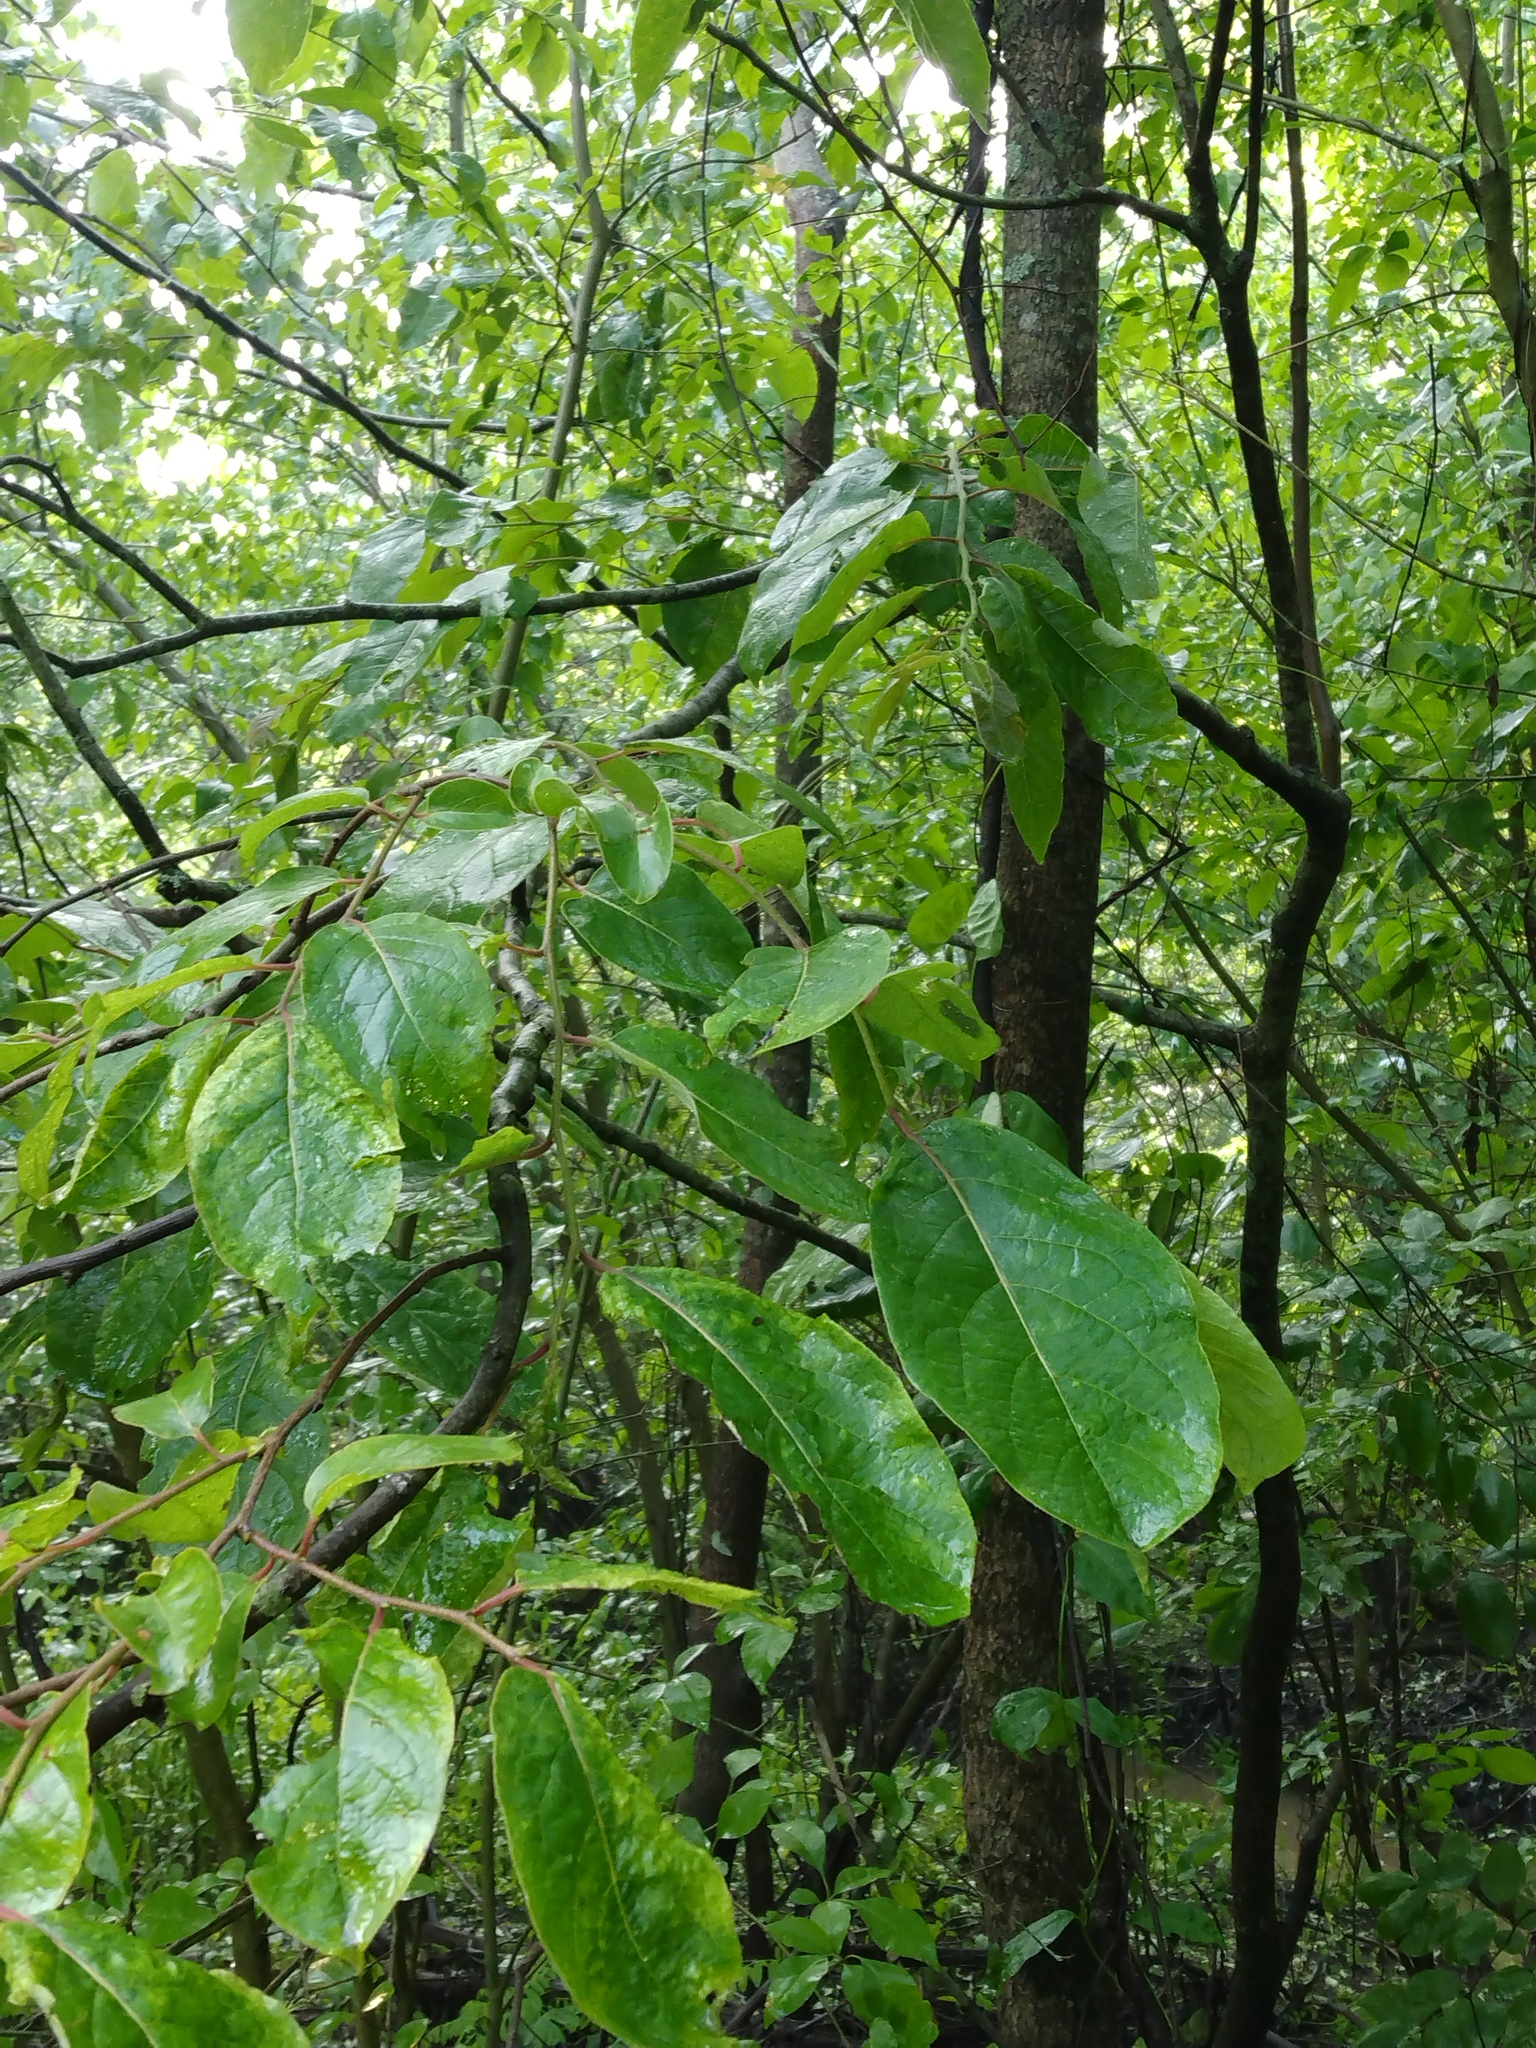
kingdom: Plantae
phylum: Tracheophyta
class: Magnoliopsida
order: Ericales
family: Ebenaceae
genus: Diospyros
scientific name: Diospyros virginiana
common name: Persimmon
